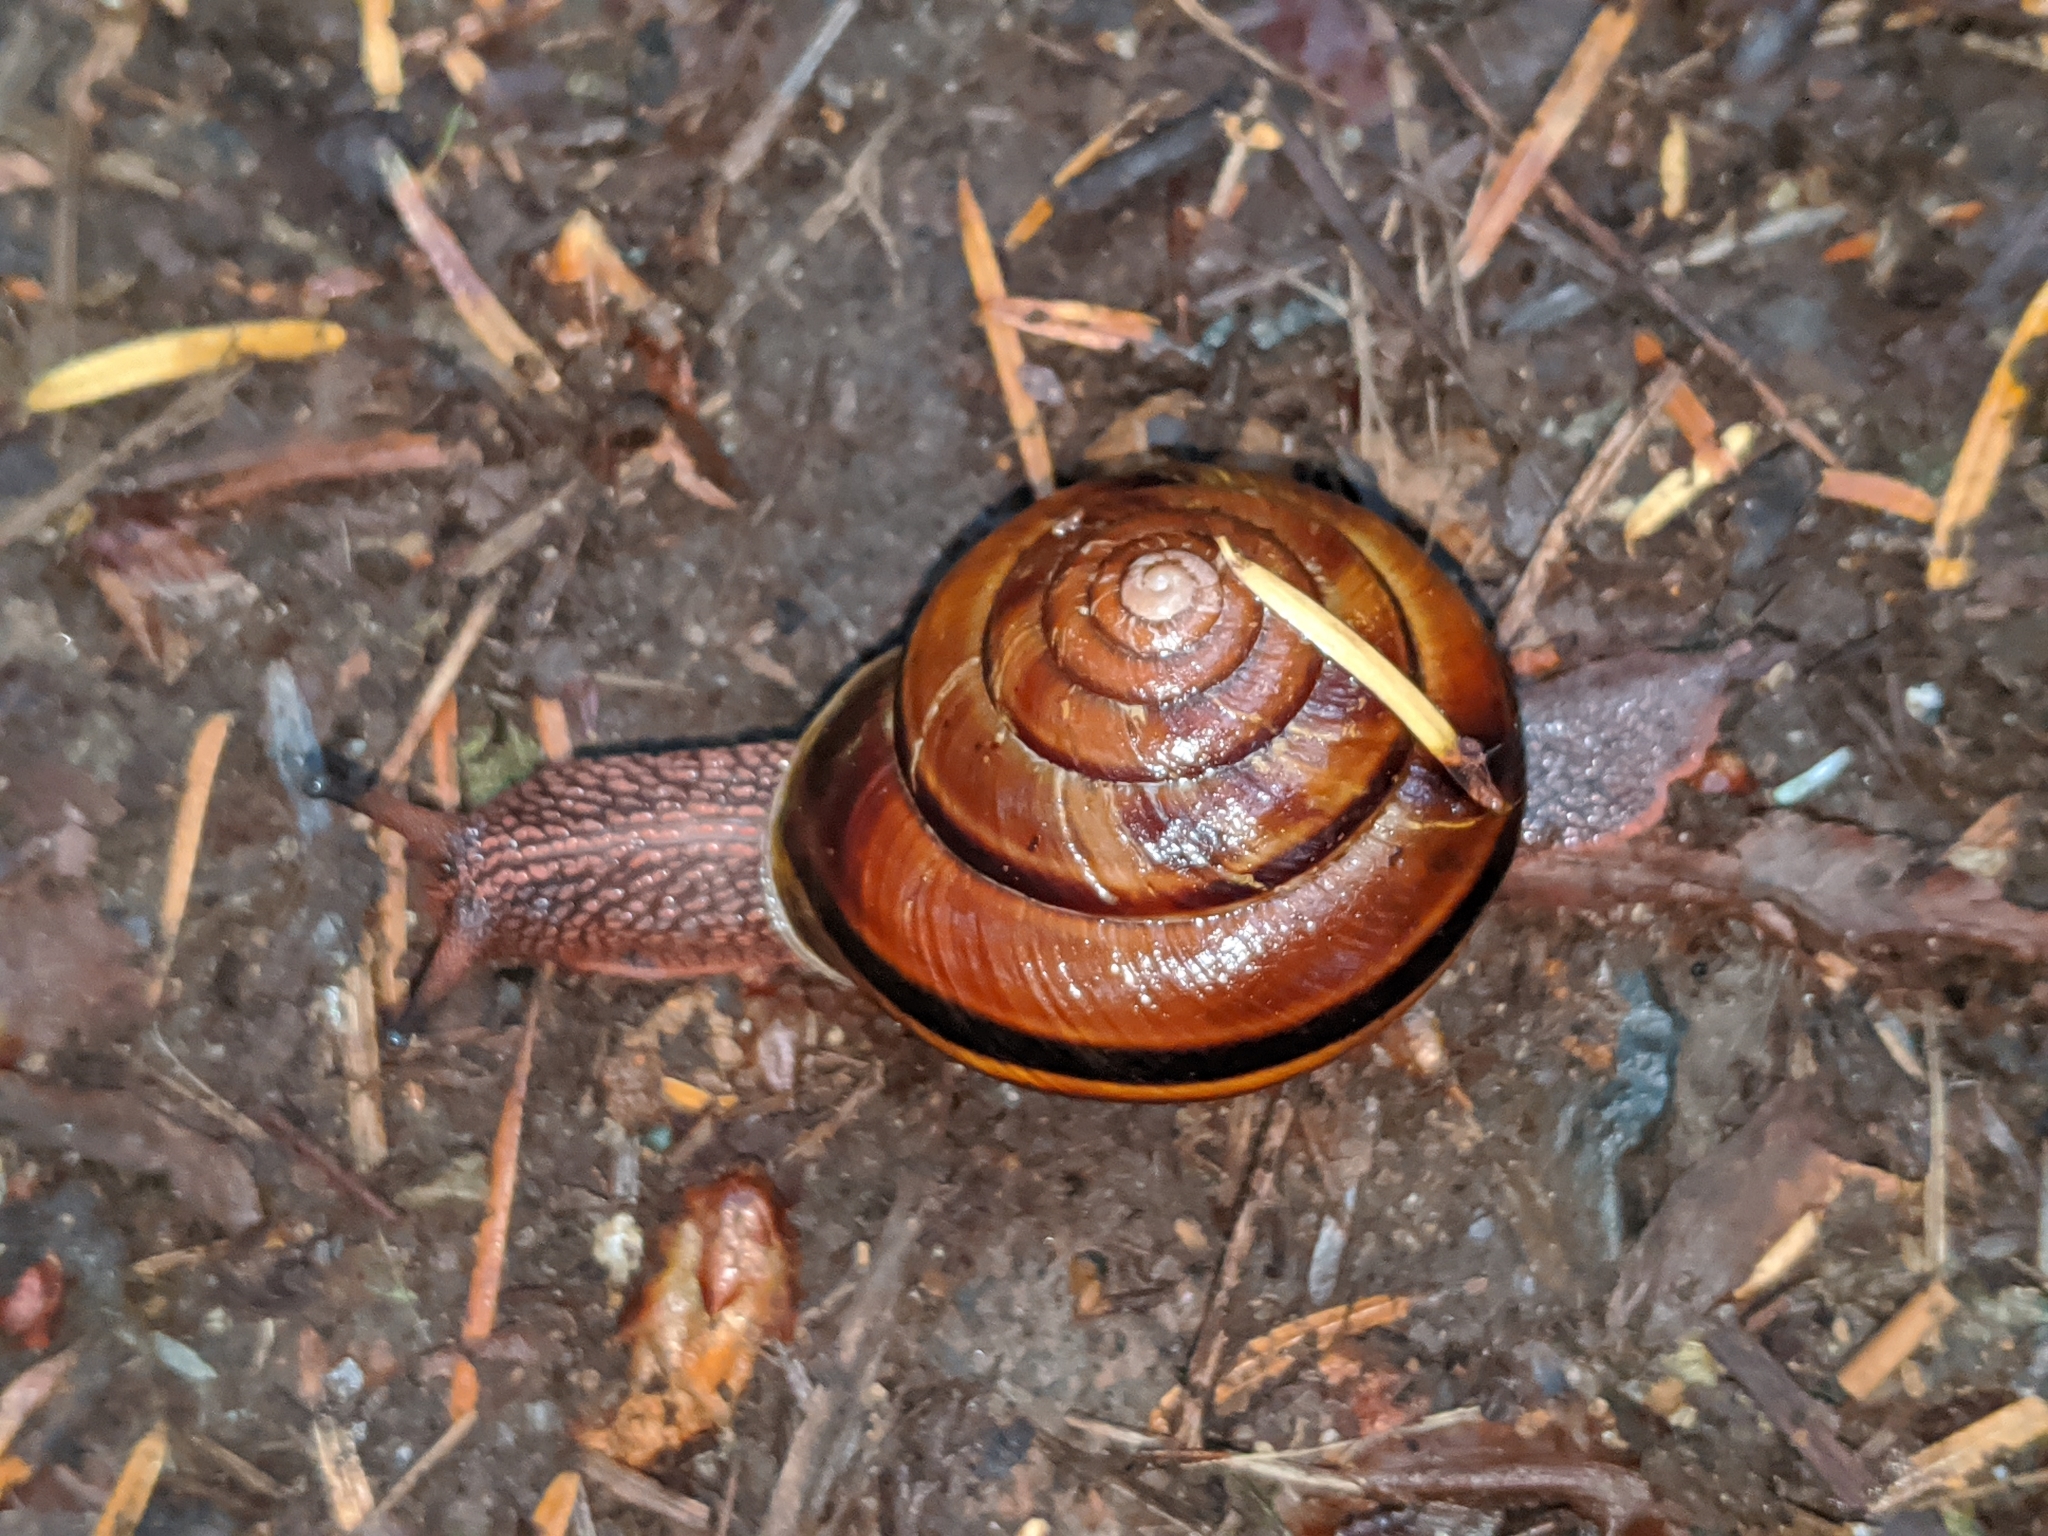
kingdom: Animalia
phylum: Mollusca
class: Gastropoda
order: Stylommatophora
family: Xanthonychidae
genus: Monadenia
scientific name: Monadenia fidelis
